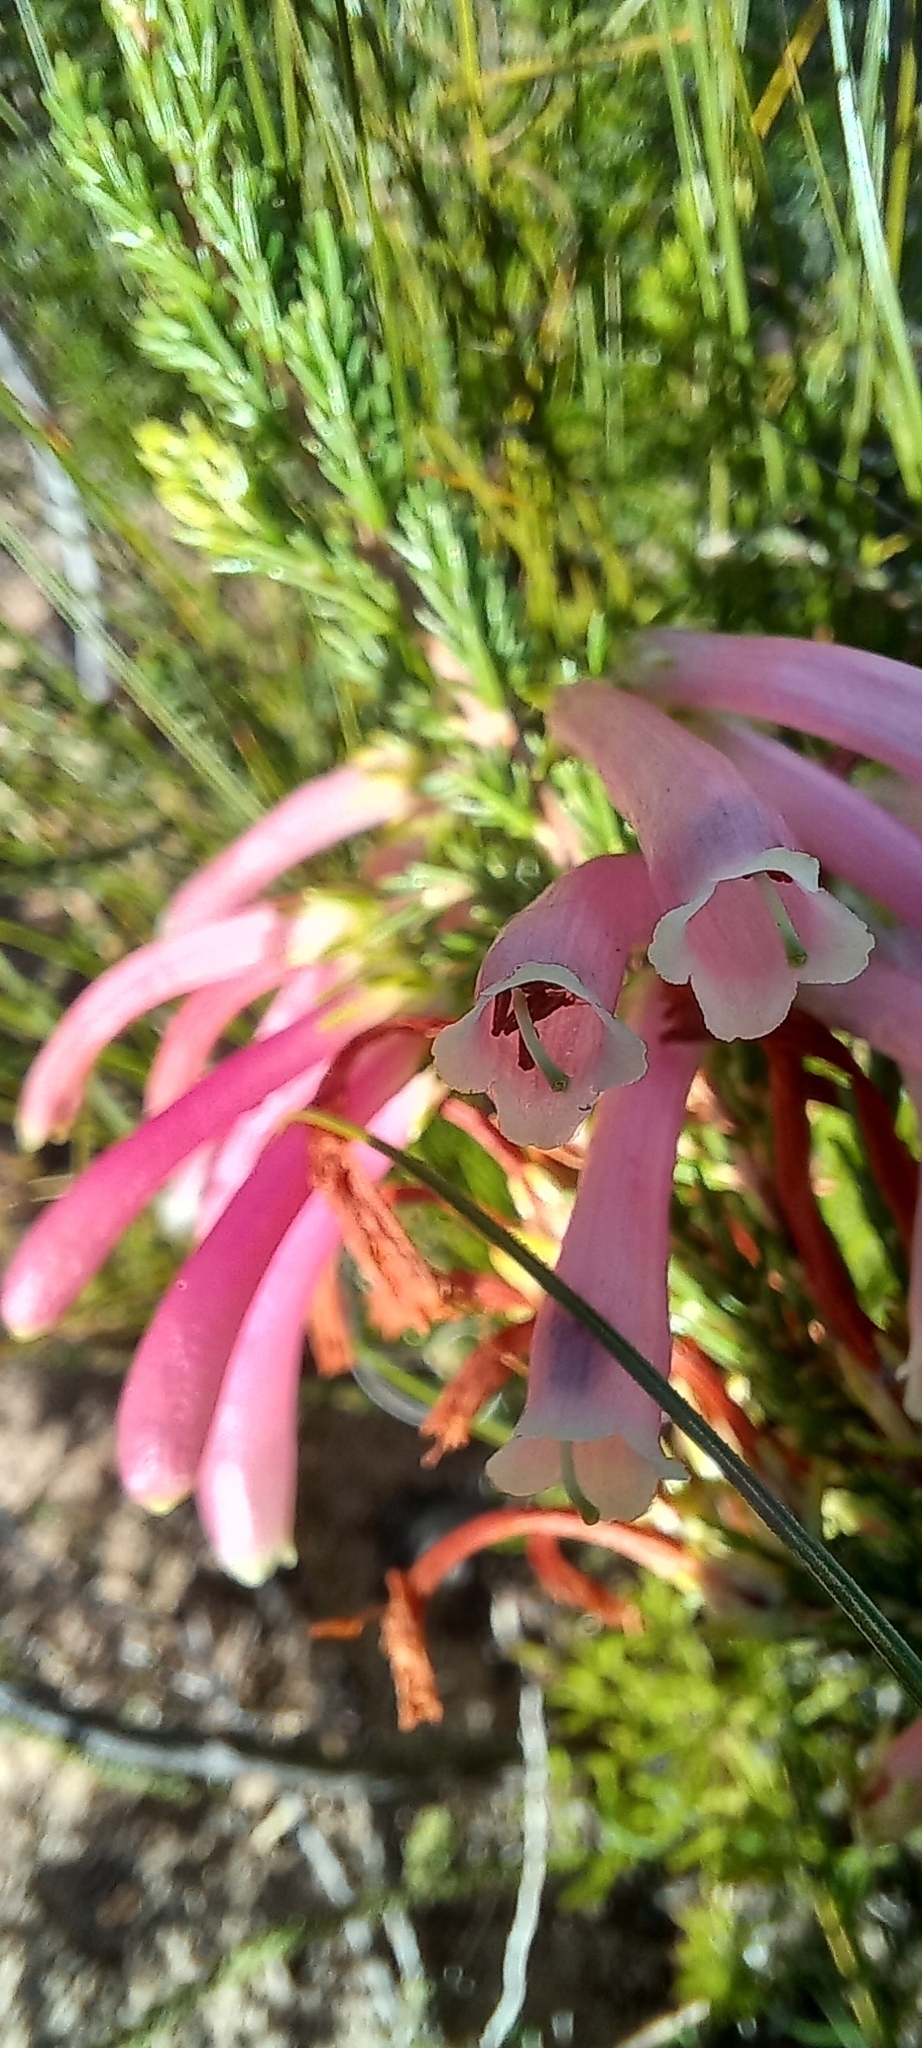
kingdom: Plantae
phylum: Tracheophyta
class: Magnoliopsida
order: Ericales
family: Ericaceae
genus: Erica
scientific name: Erica discolor
